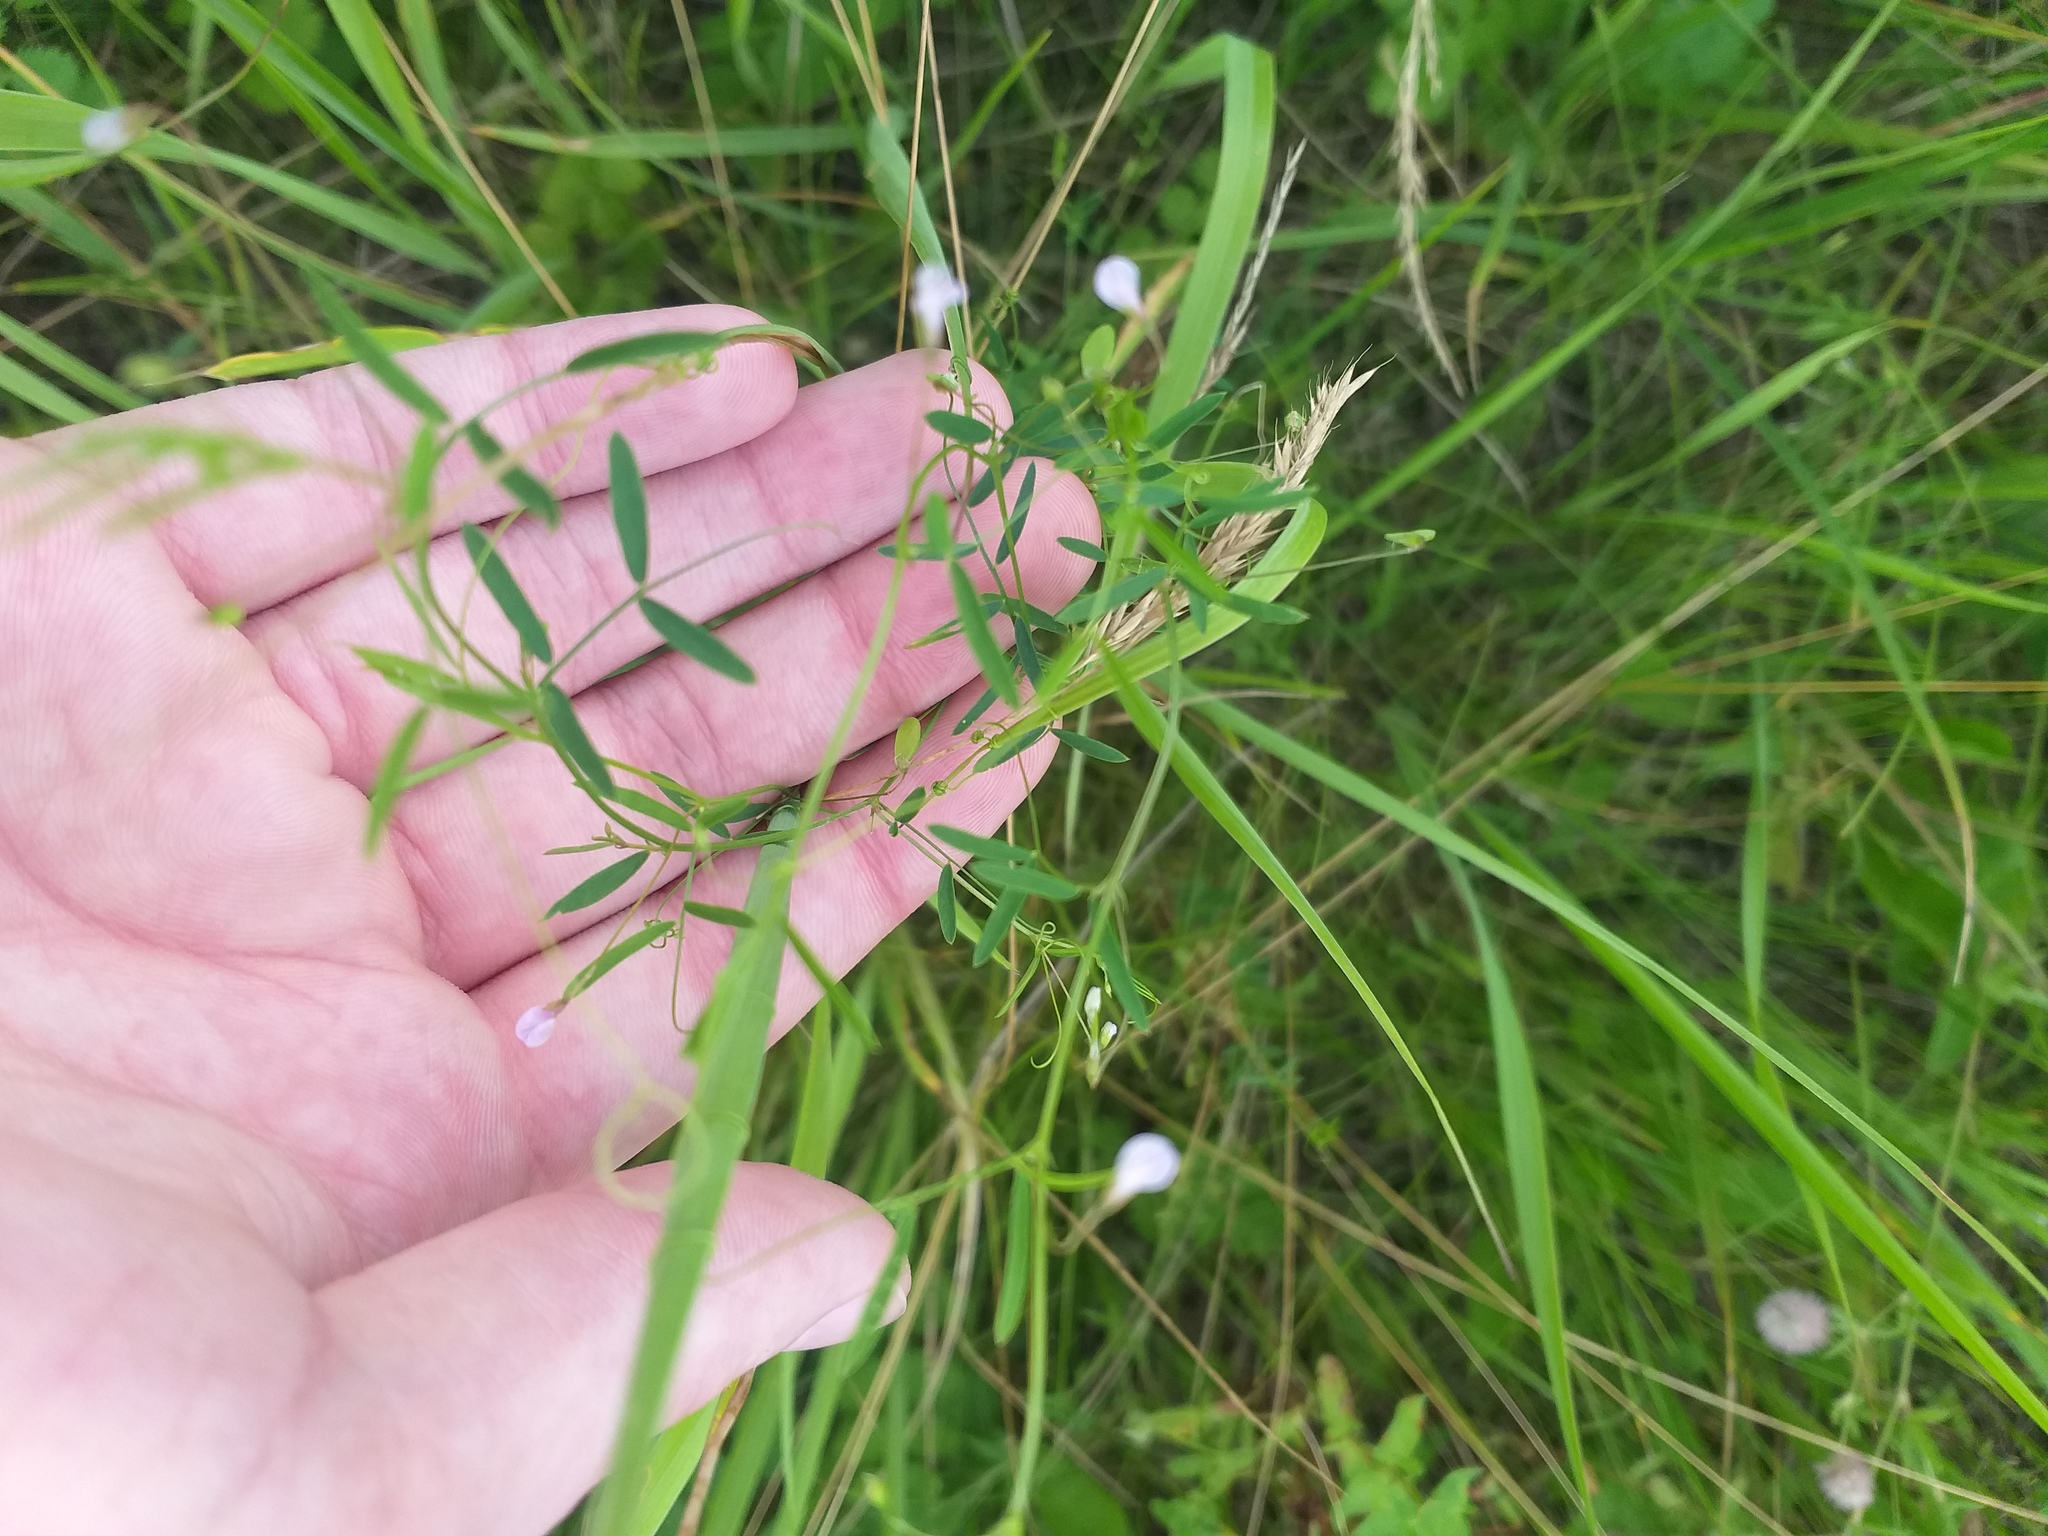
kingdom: Plantae
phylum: Tracheophyta
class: Magnoliopsida
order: Fabales
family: Fabaceae
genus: Vicia
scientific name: Vicia tetrasperma
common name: Smooth tare
